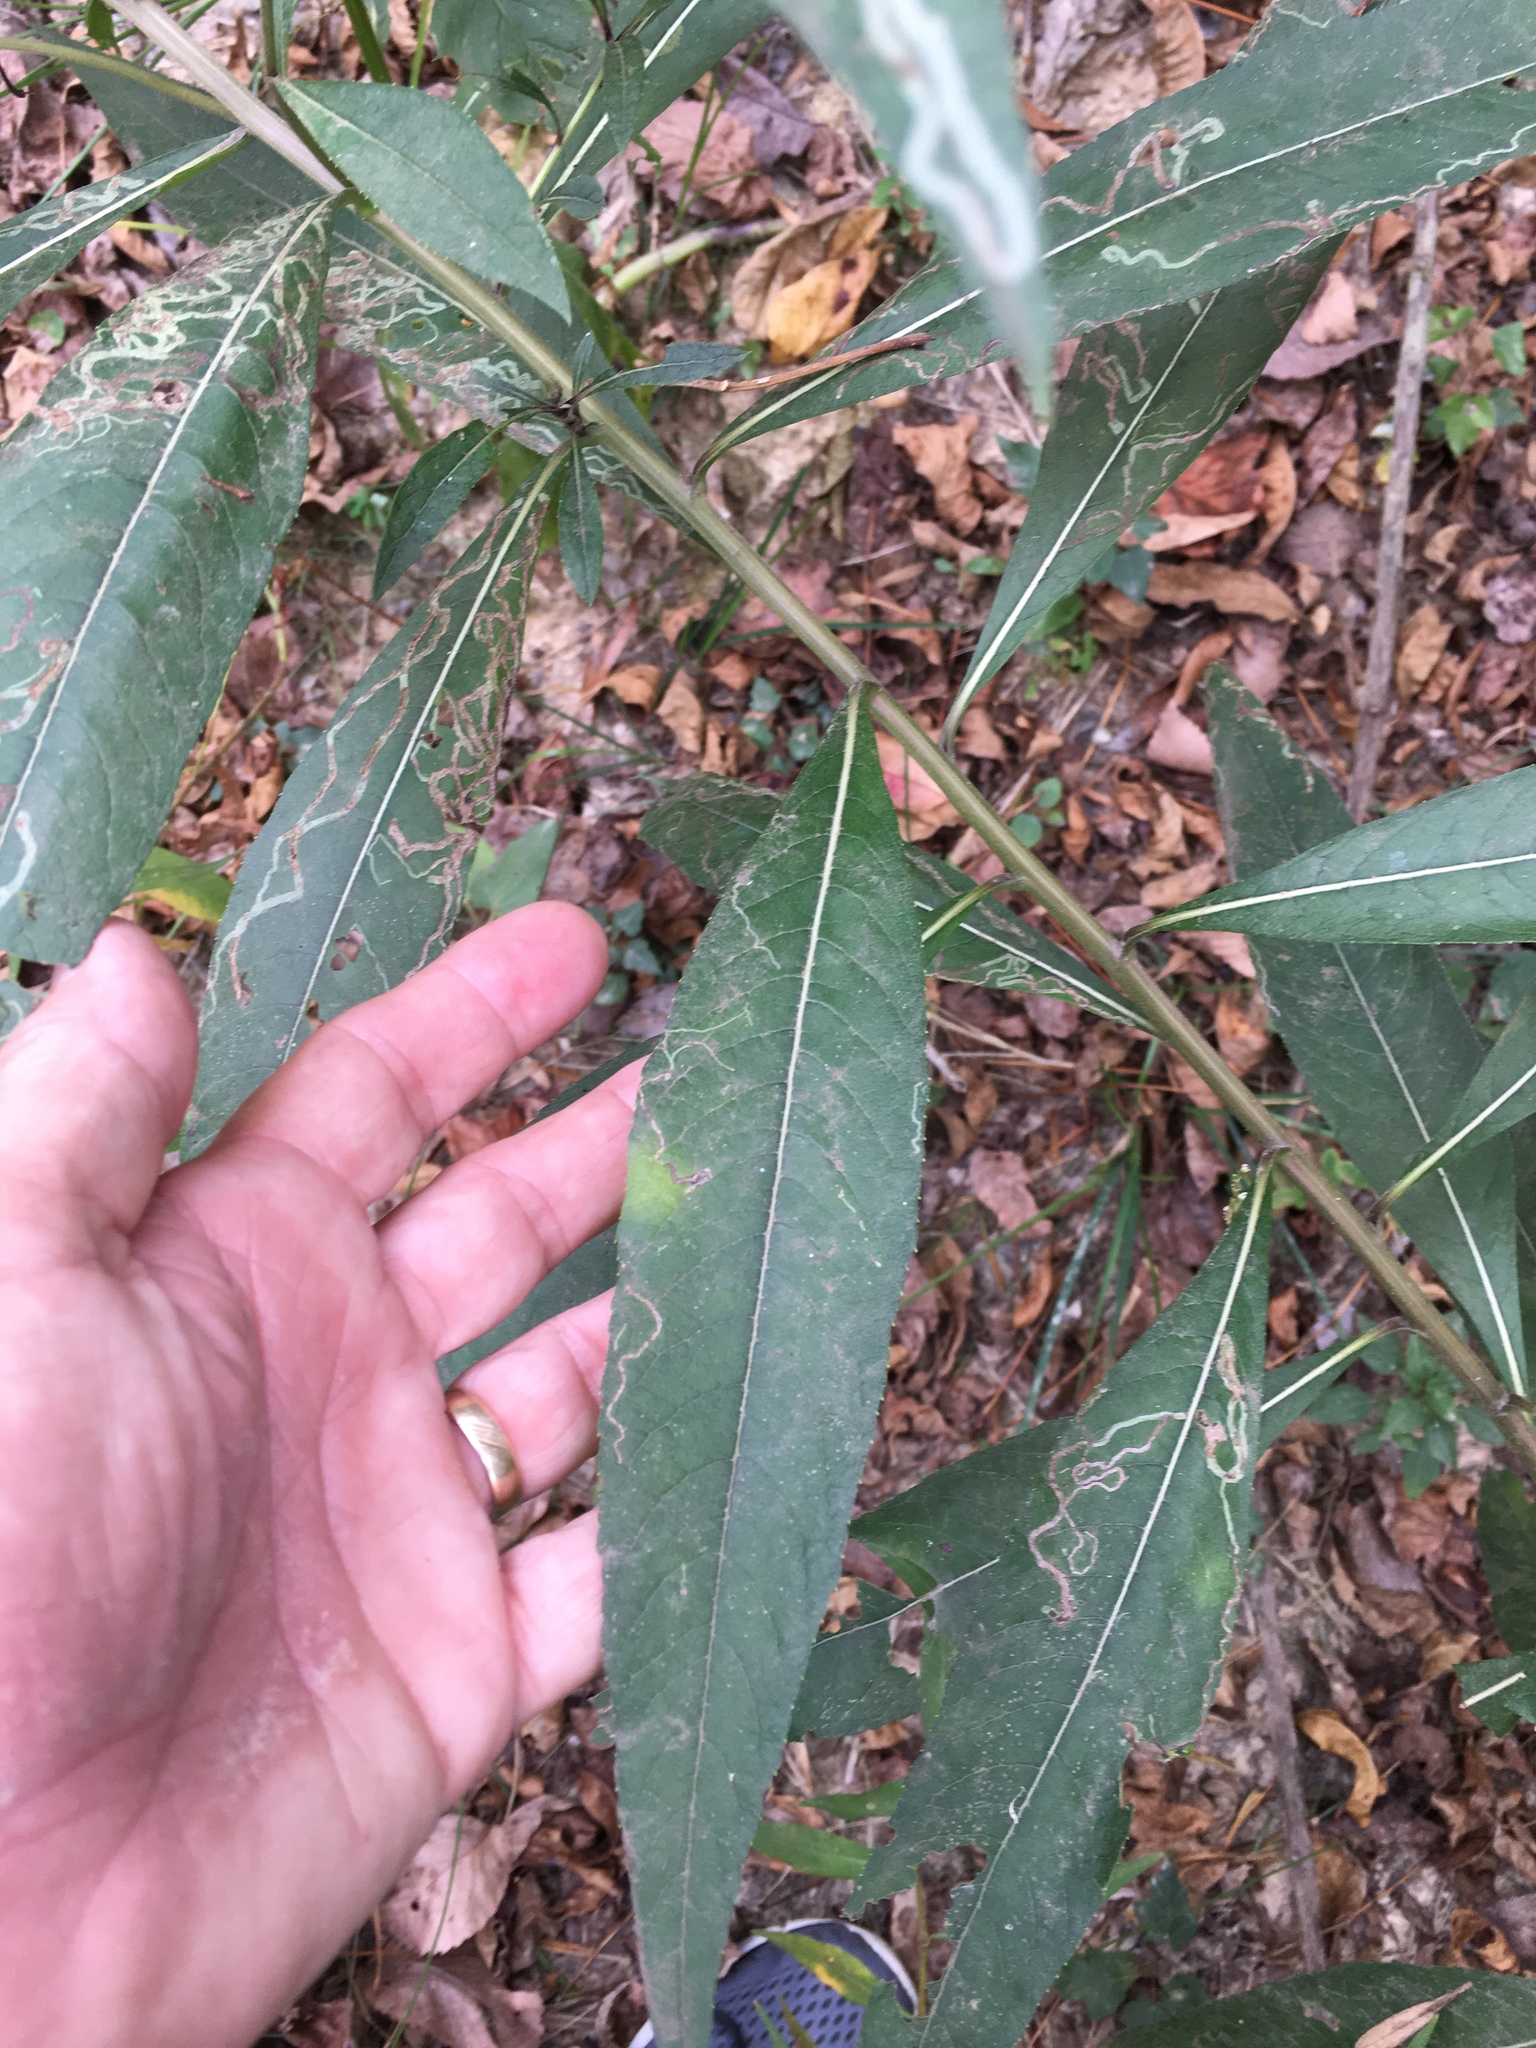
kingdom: Plantae
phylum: Tracheophyta
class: Magnoliopsida
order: Asterales
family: Asteraceae
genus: Vernonia
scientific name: Vernonia noveboracensis
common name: New york ironweed
